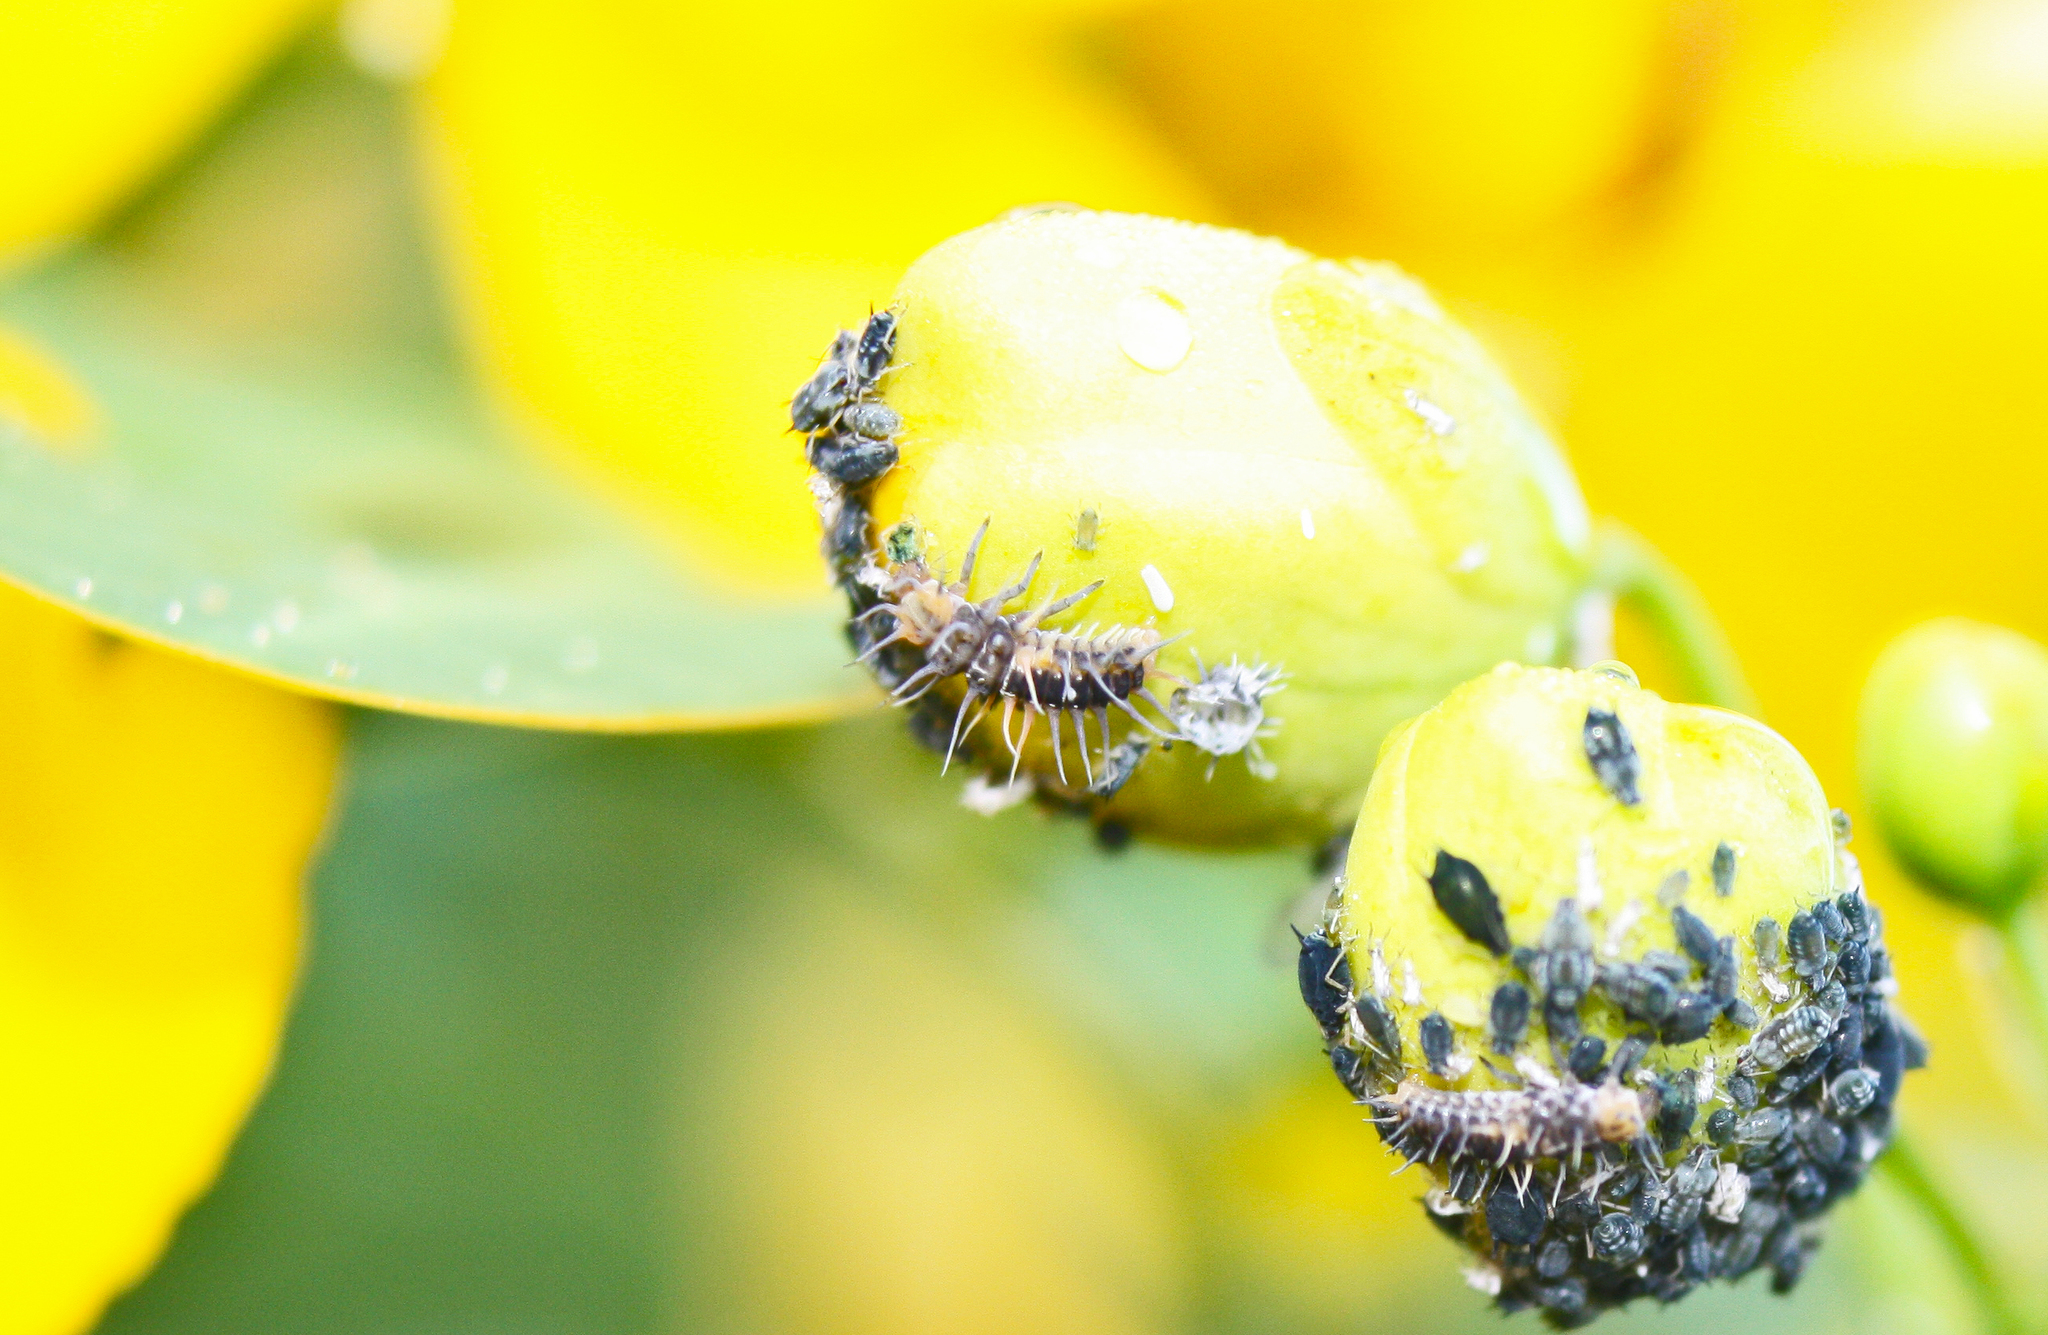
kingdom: Animalia
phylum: Arthropoda
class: Insecta
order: Coleoptera
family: Coccinellidae
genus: Harmonia
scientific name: Harmonia
